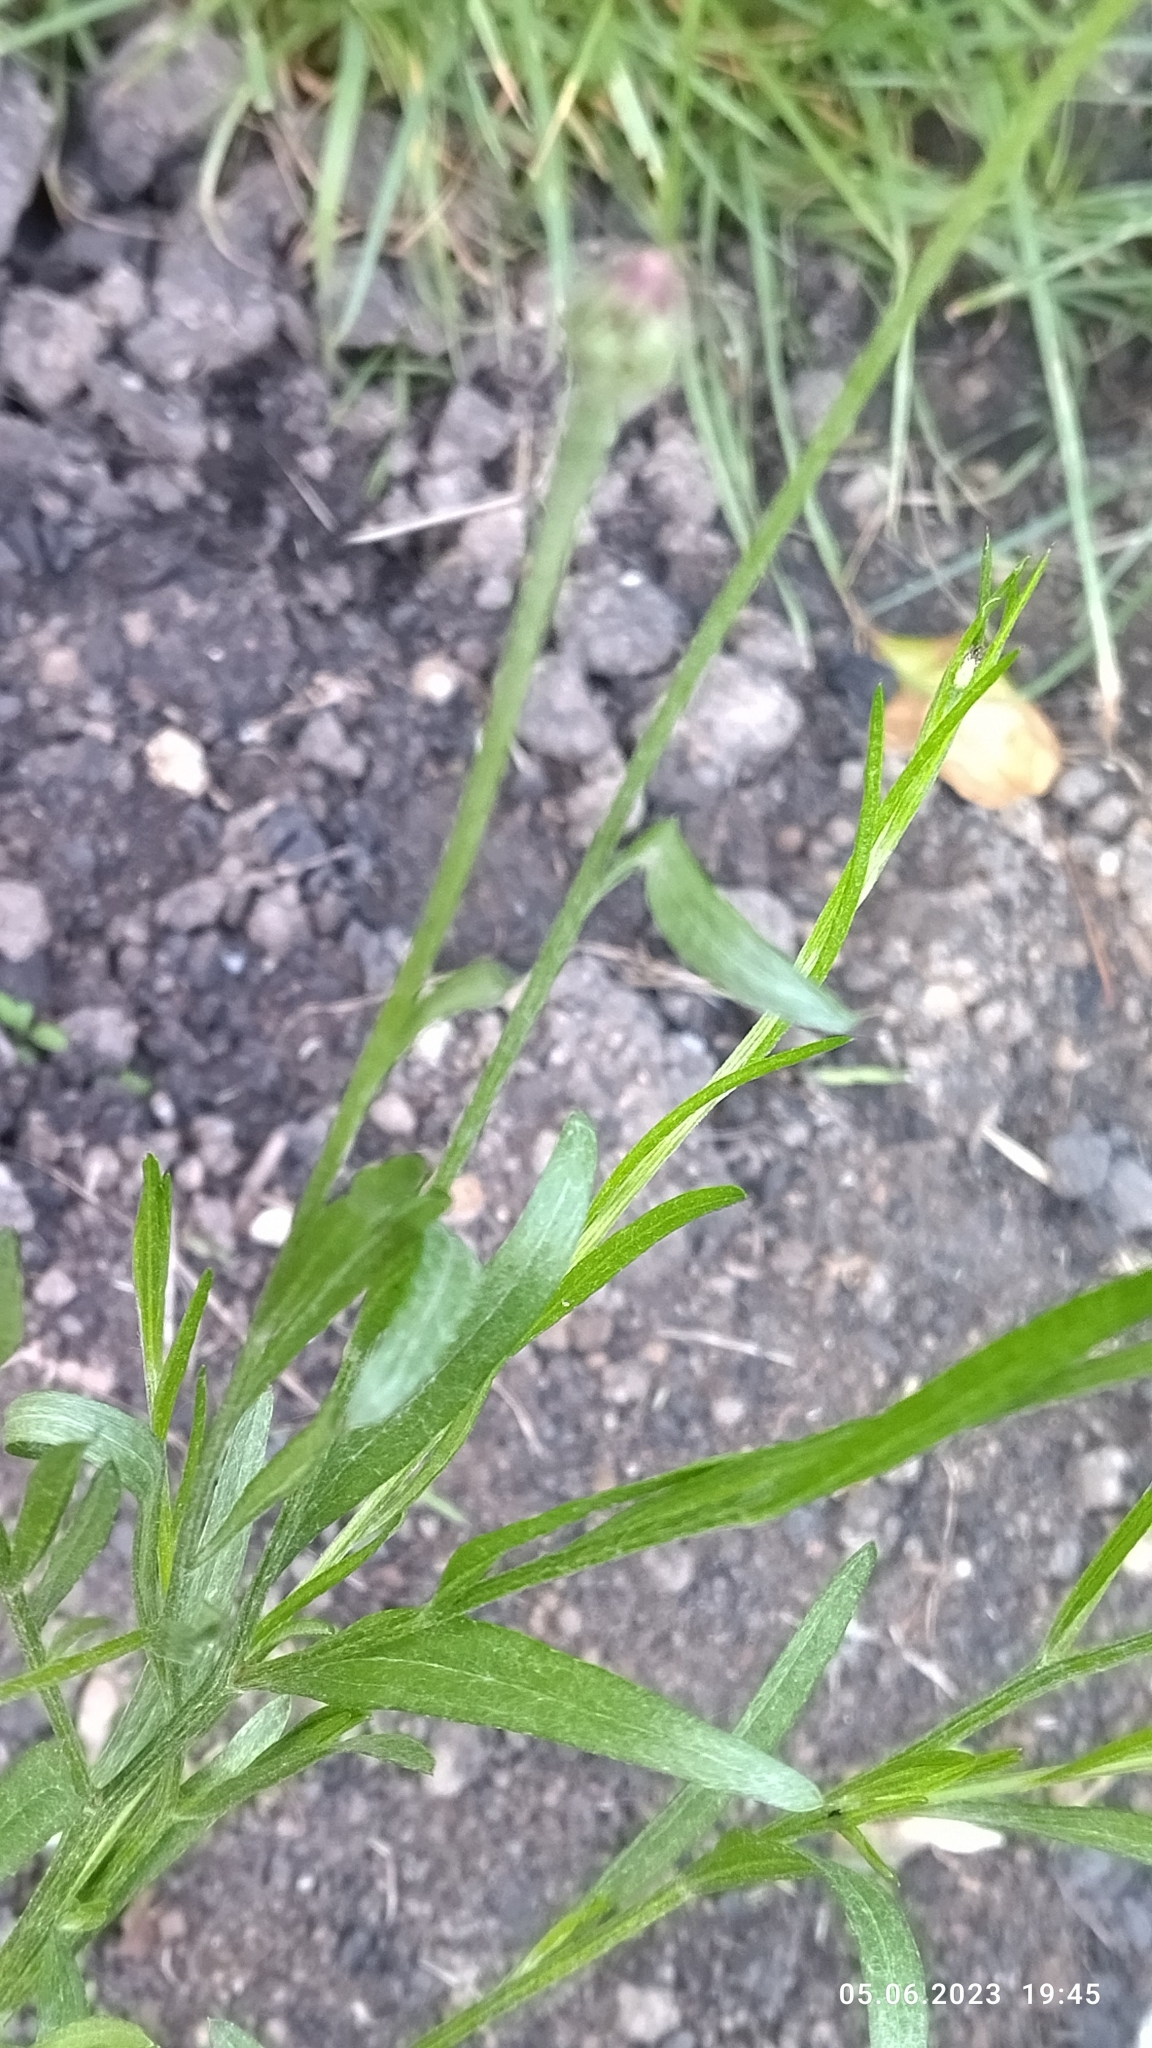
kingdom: Plantae
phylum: Tracheophyta
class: Magnoliopsida
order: Asterales
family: Asteraceae
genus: Centaurea
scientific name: Centaurea cyanus
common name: Cornflower
